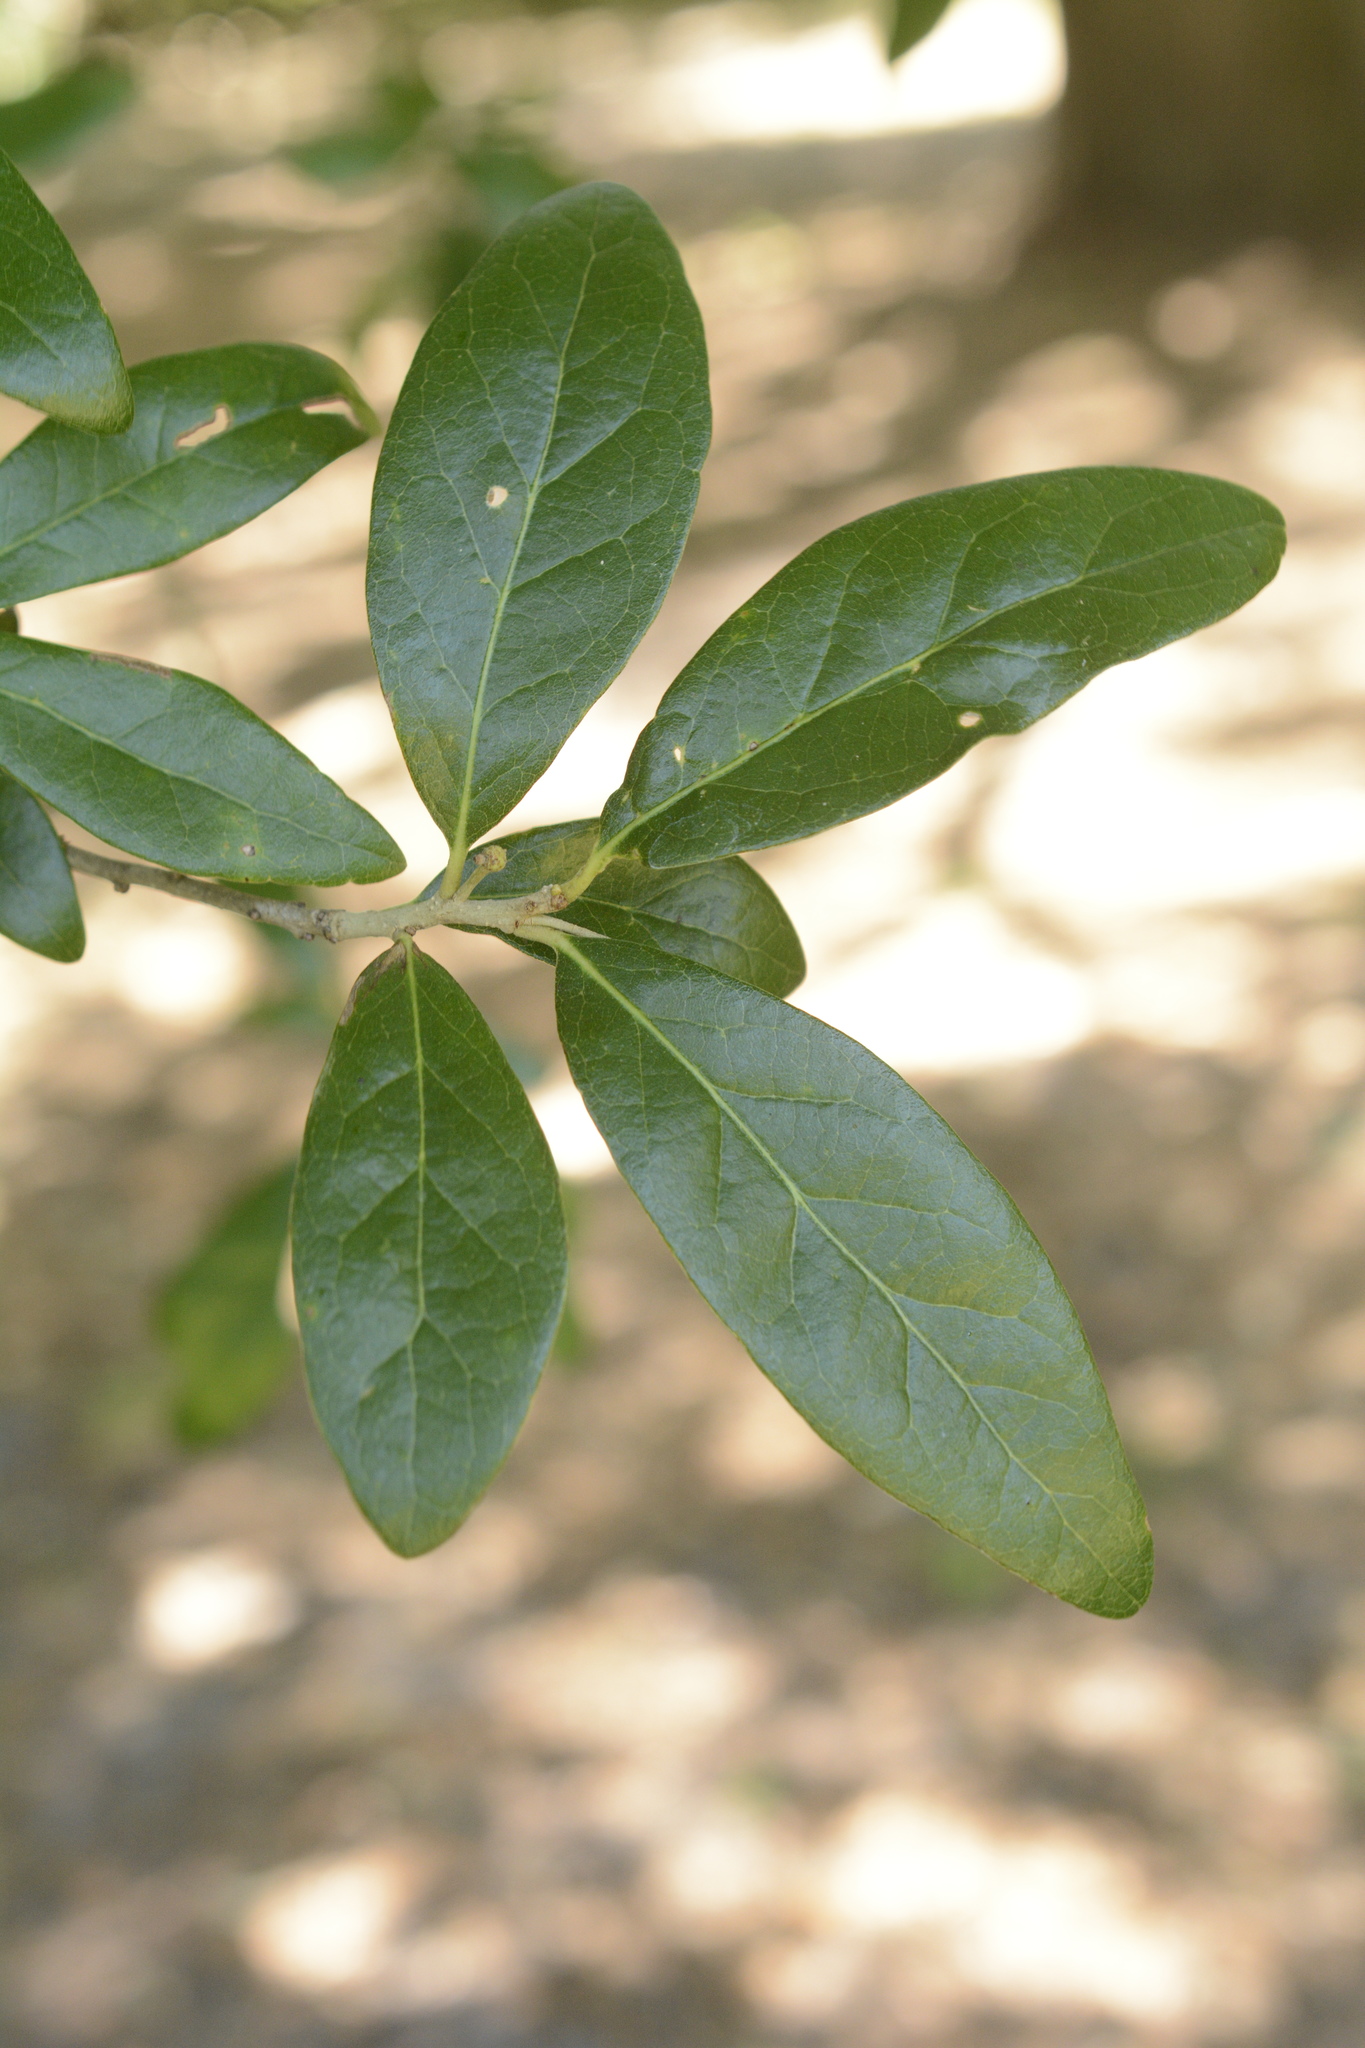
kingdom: Plantae
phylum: Tracheophyta
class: Magnoliopsida
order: Fagales
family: Fagaceae
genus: Quercus
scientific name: Quercus virginiana
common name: Southern live oak
